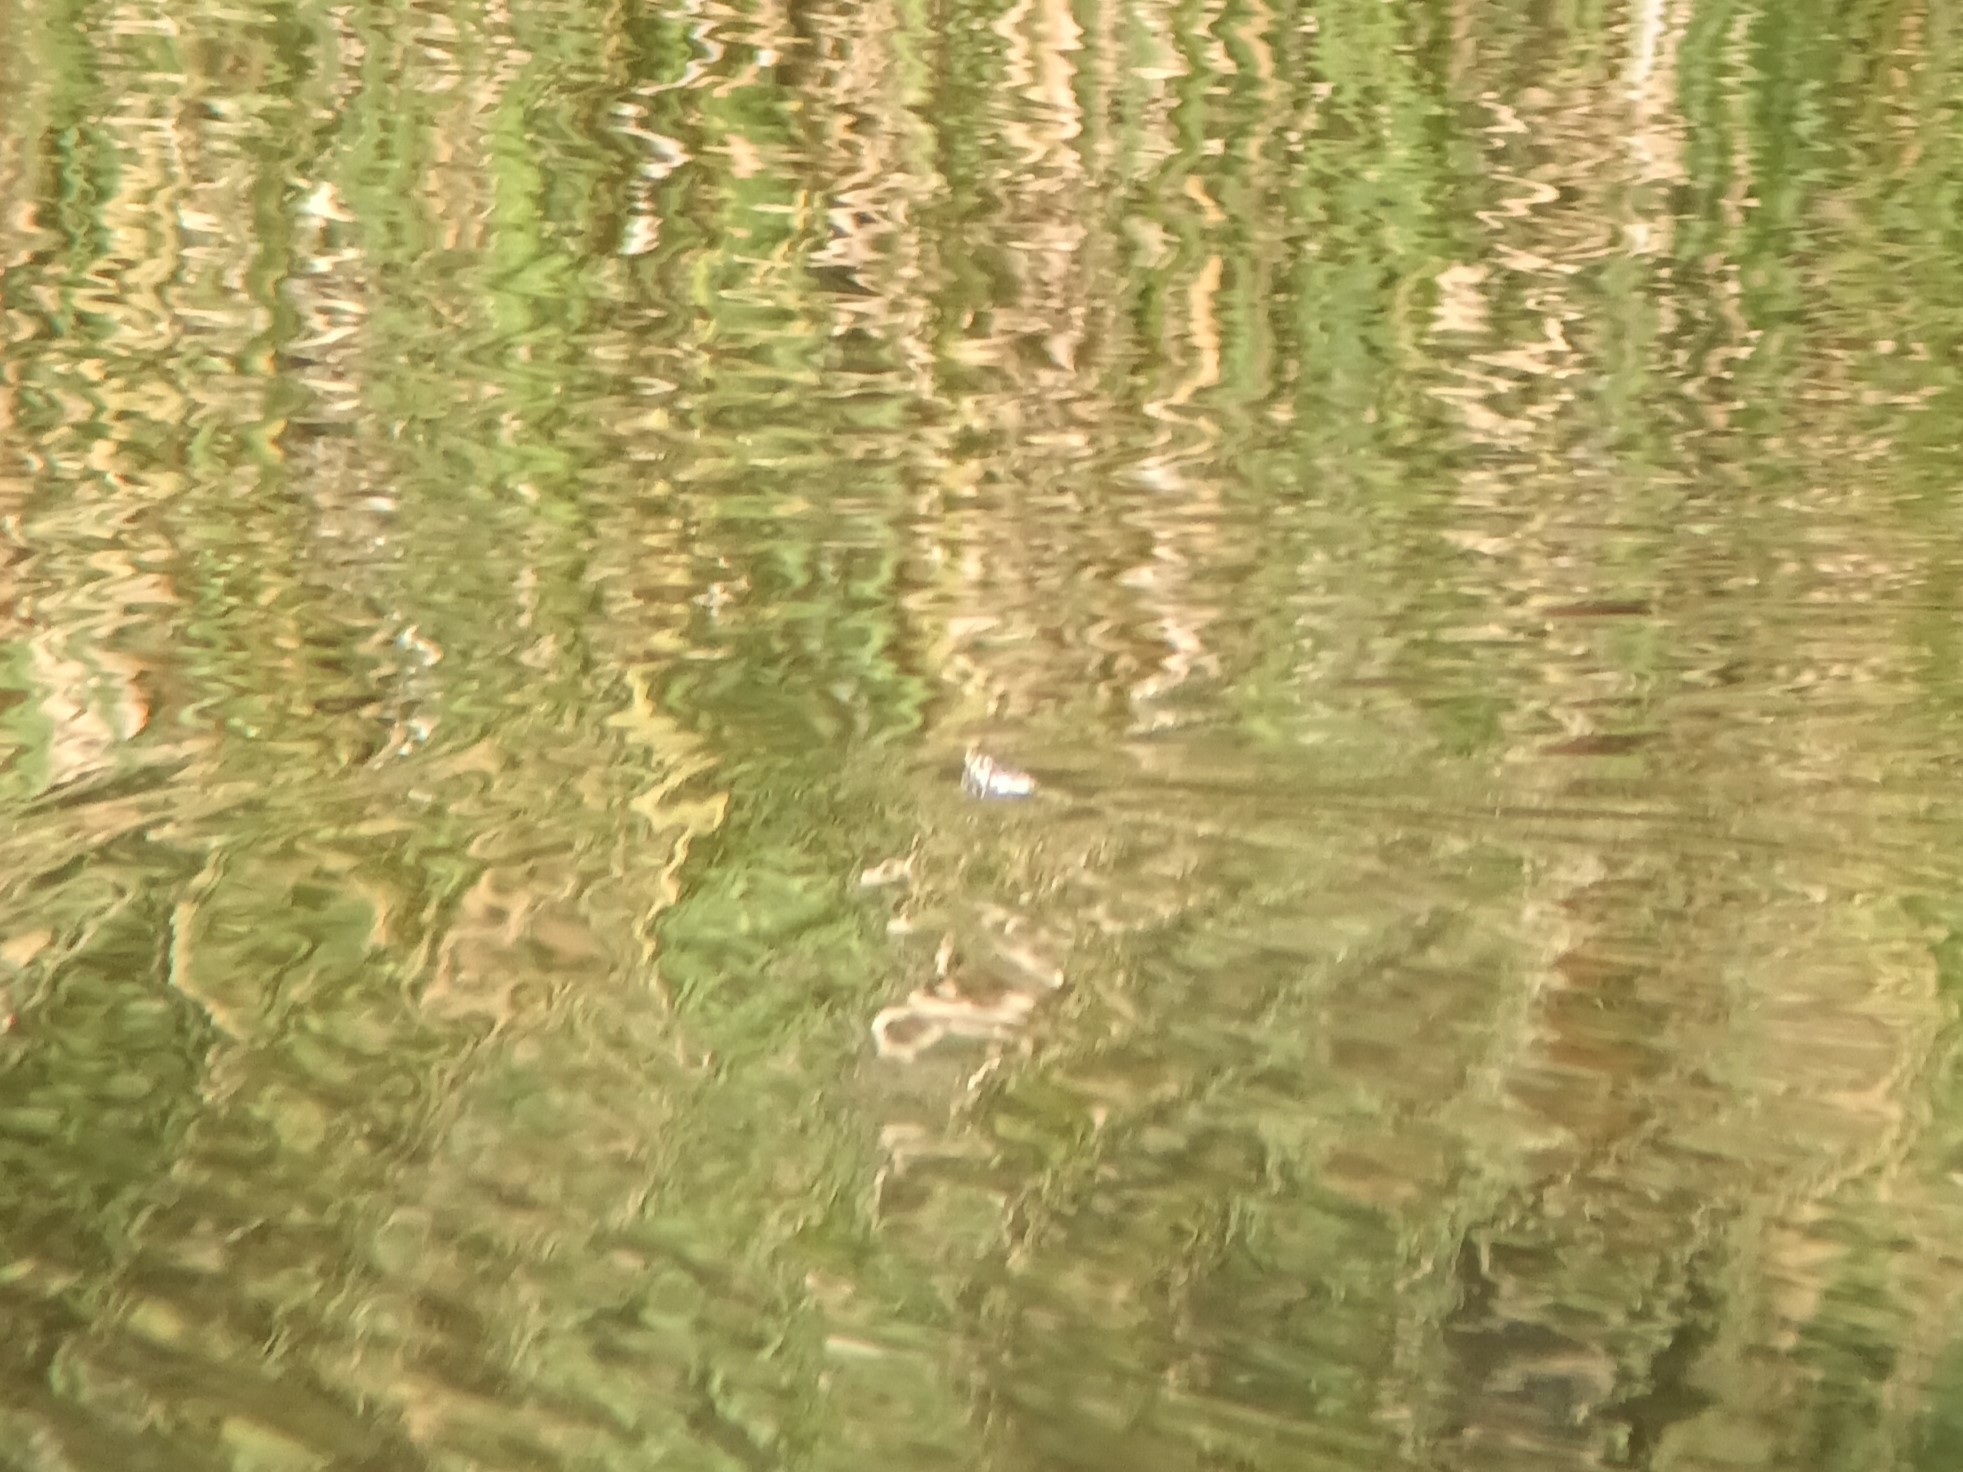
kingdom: Animalia
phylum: Chordata
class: Squamata
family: Colubridae
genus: Natrix
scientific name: Natrix helvetica
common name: Banded grass snake
